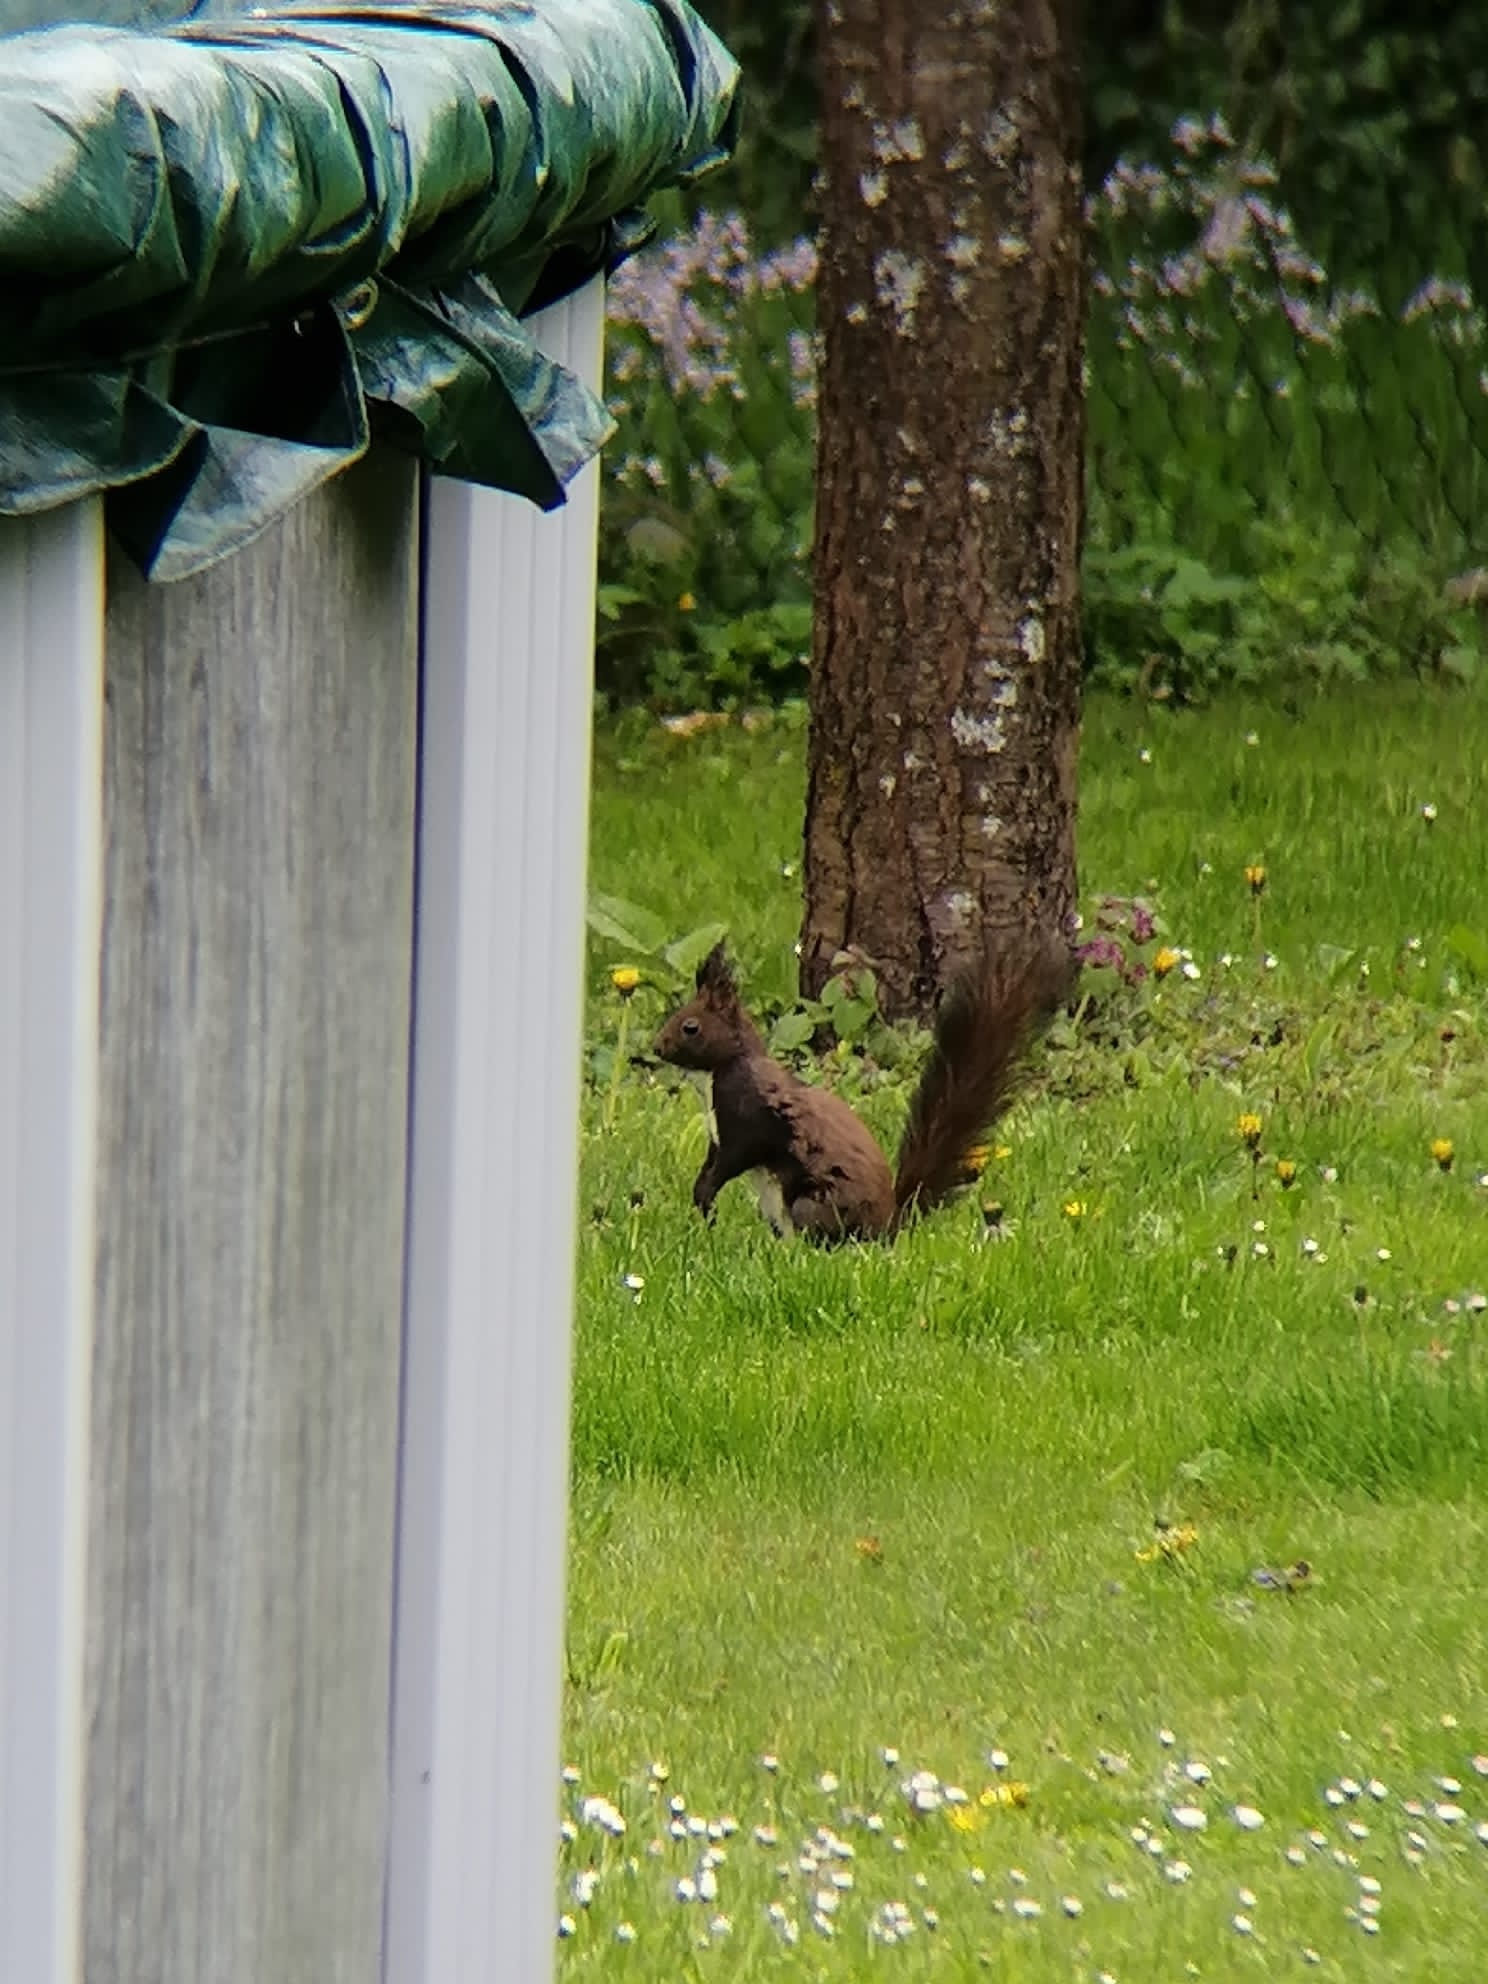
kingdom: Animalia
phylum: Chordata
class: Mammalia
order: Rodentia
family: Sciuridae
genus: Sciurus
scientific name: Sciurus vulgaris
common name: Eurasian red squirrel
